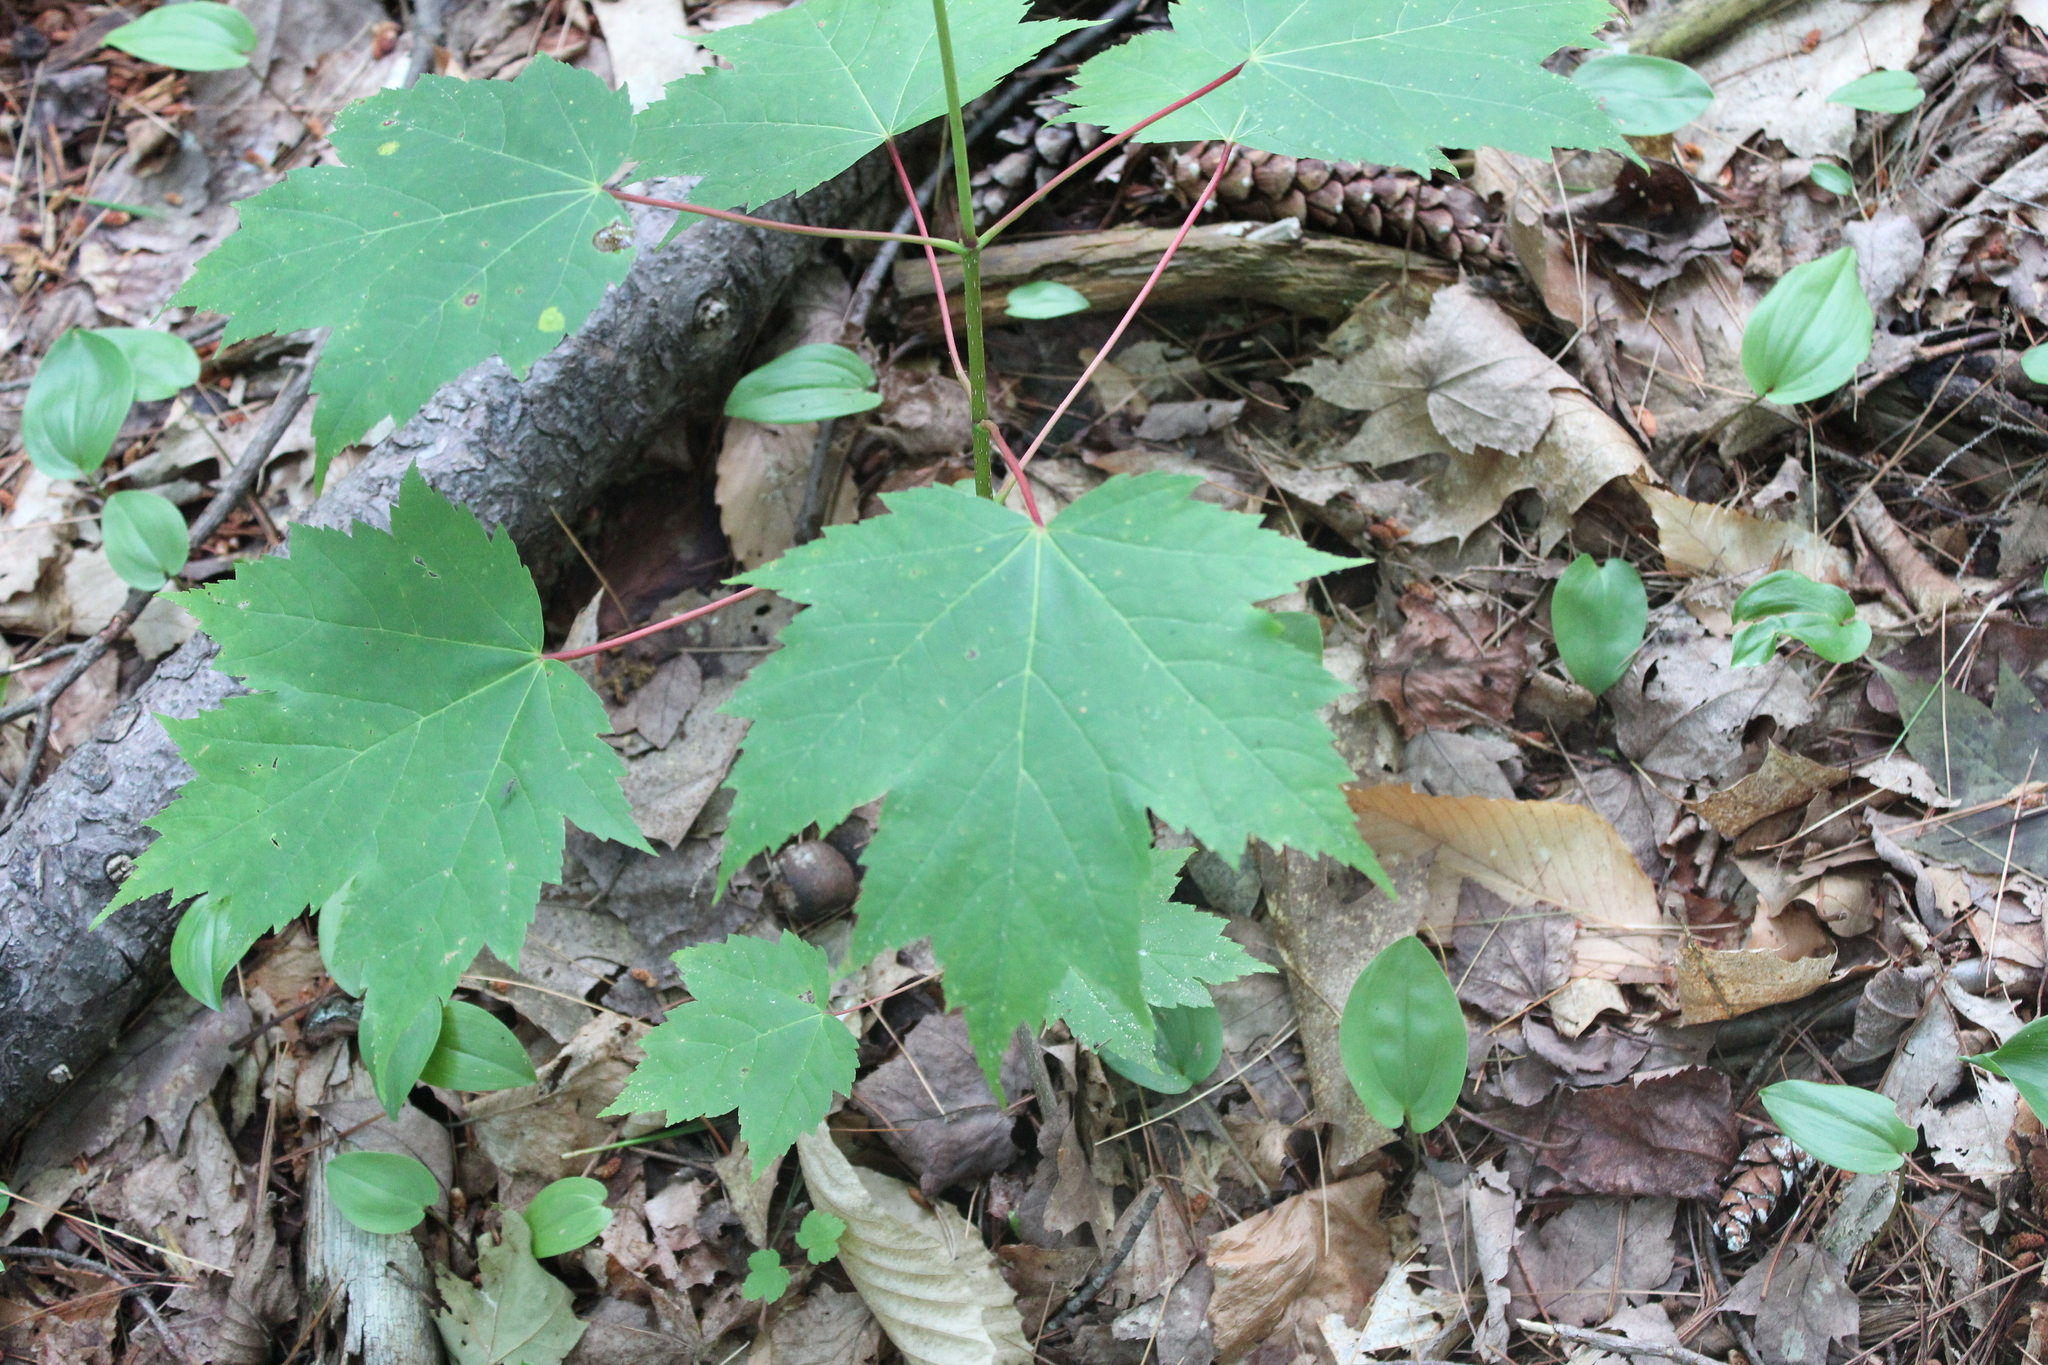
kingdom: Plantae
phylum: Tracheophyta
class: Magnoliopsida
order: Sapindales
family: Sapindaceae
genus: Acer
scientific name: Acer rubrum
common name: Red maple
